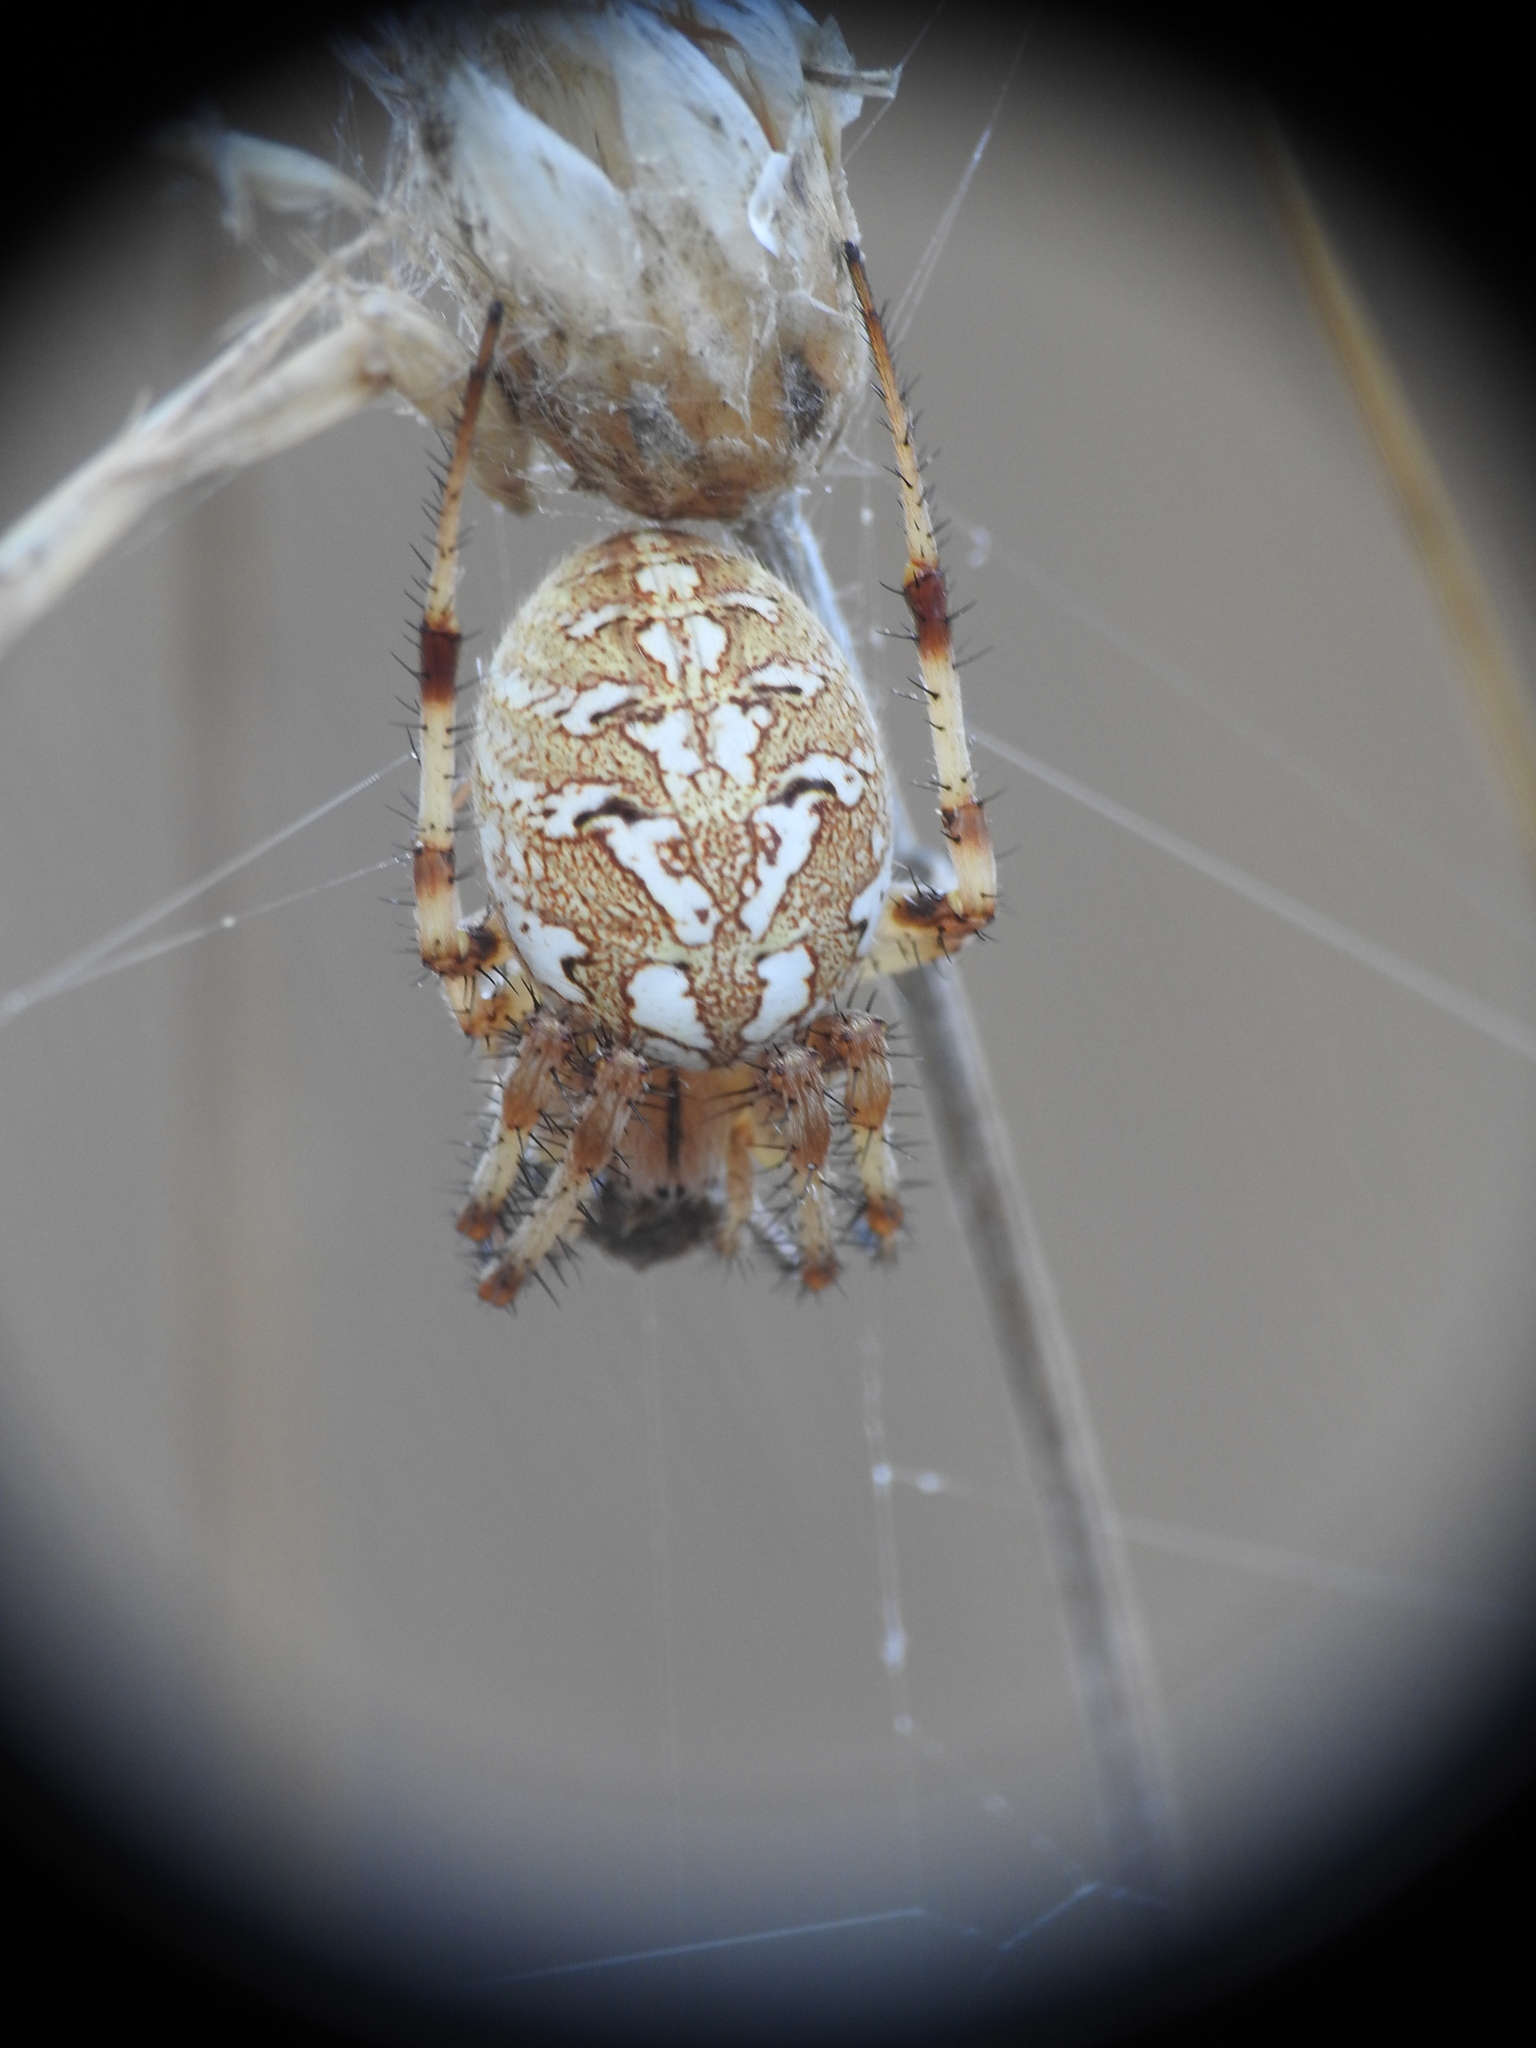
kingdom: Animalia
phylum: Arthropoda
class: Arachnida
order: Araneae
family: Araneidae
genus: Neoscona
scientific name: Neoscona byzanthina
